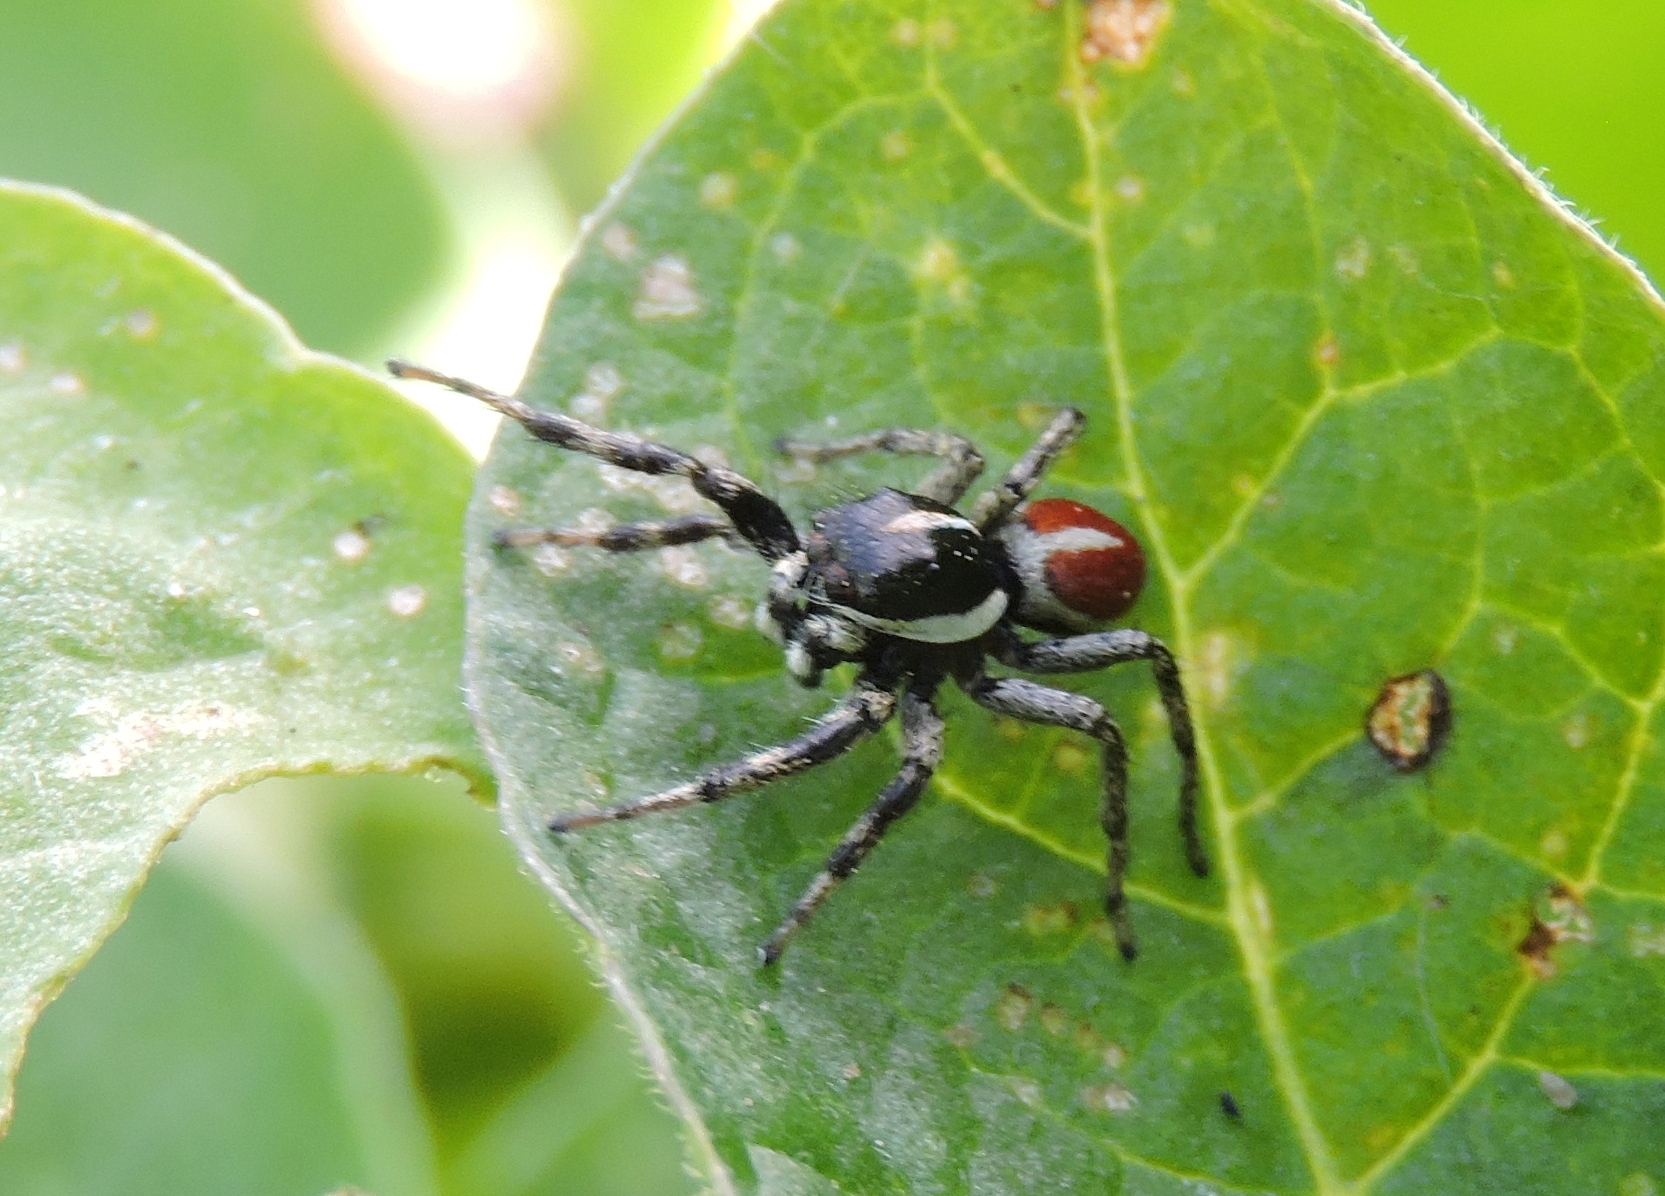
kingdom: Animalia
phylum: Arthropoda
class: Arachnida
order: Araneae
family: Salticidae
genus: Phiale
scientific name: Phiale roburifoliata
